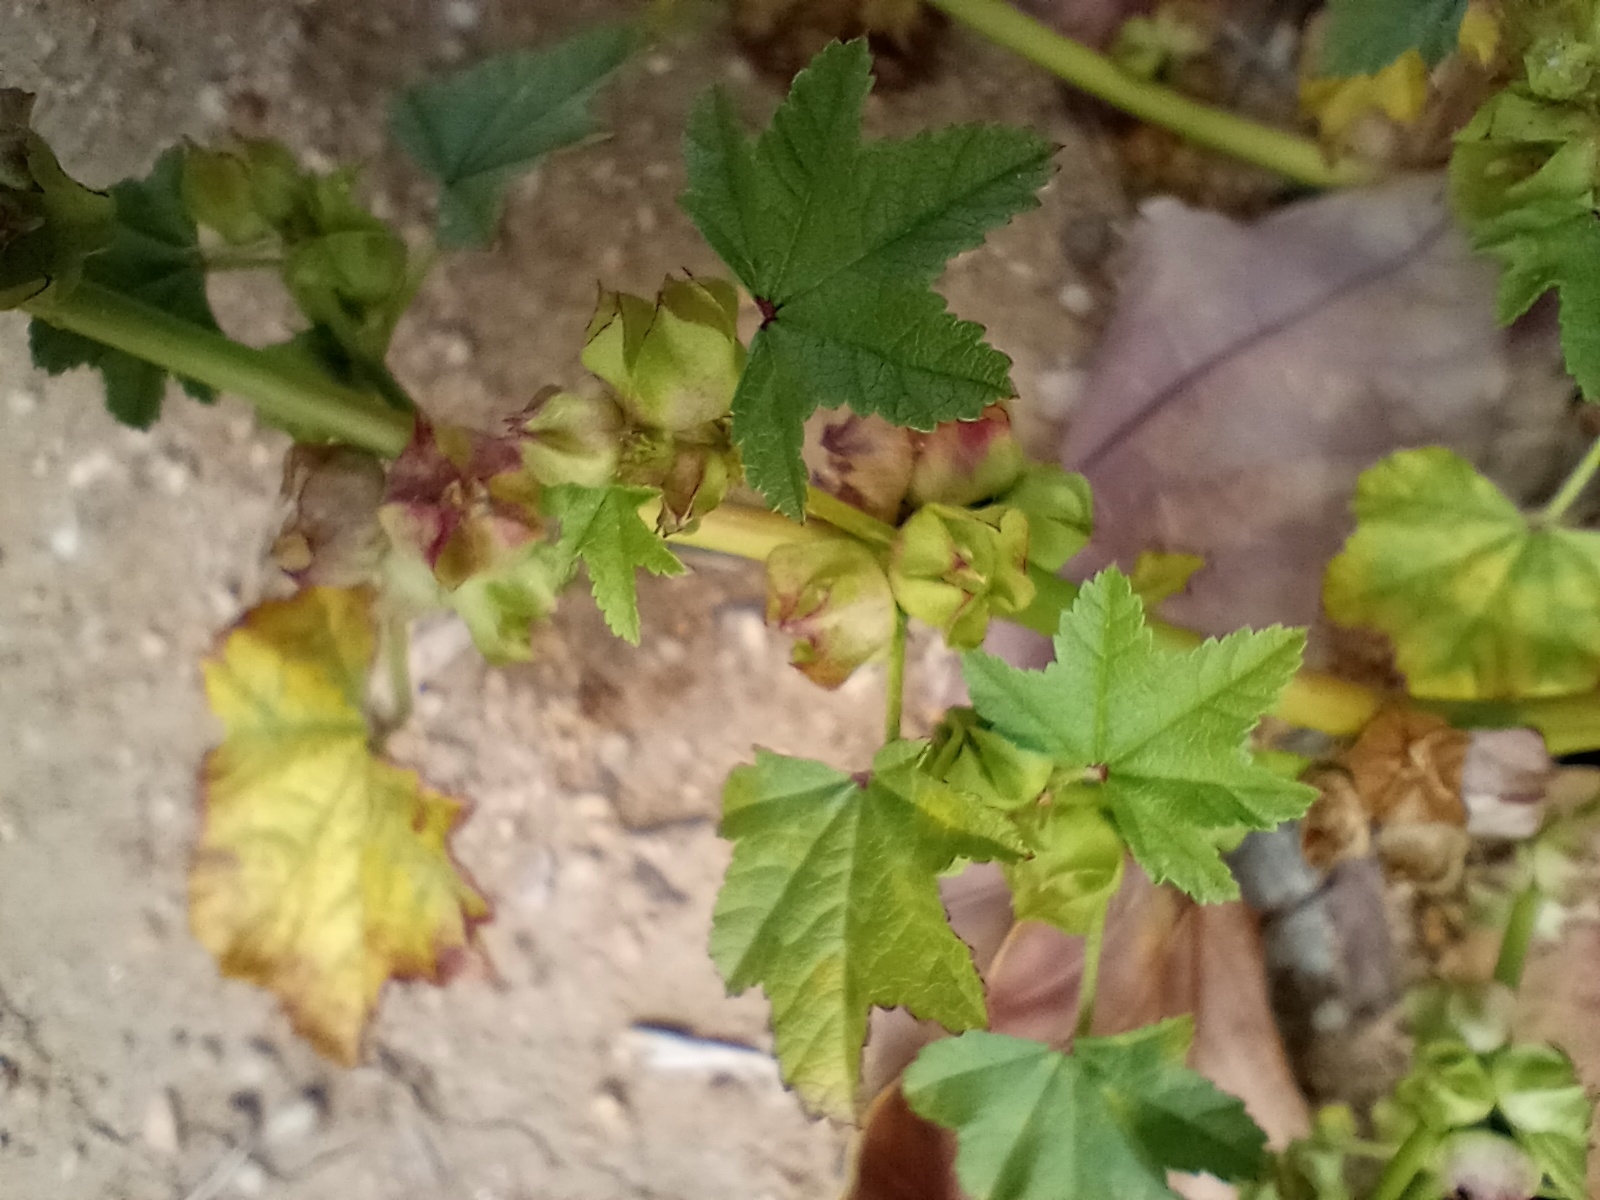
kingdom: Plantae
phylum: Tracheophyta
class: Magnoliopsida
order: Malvales
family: Malvaceae
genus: Malva
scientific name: Malva parviflora
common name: Least mallow
